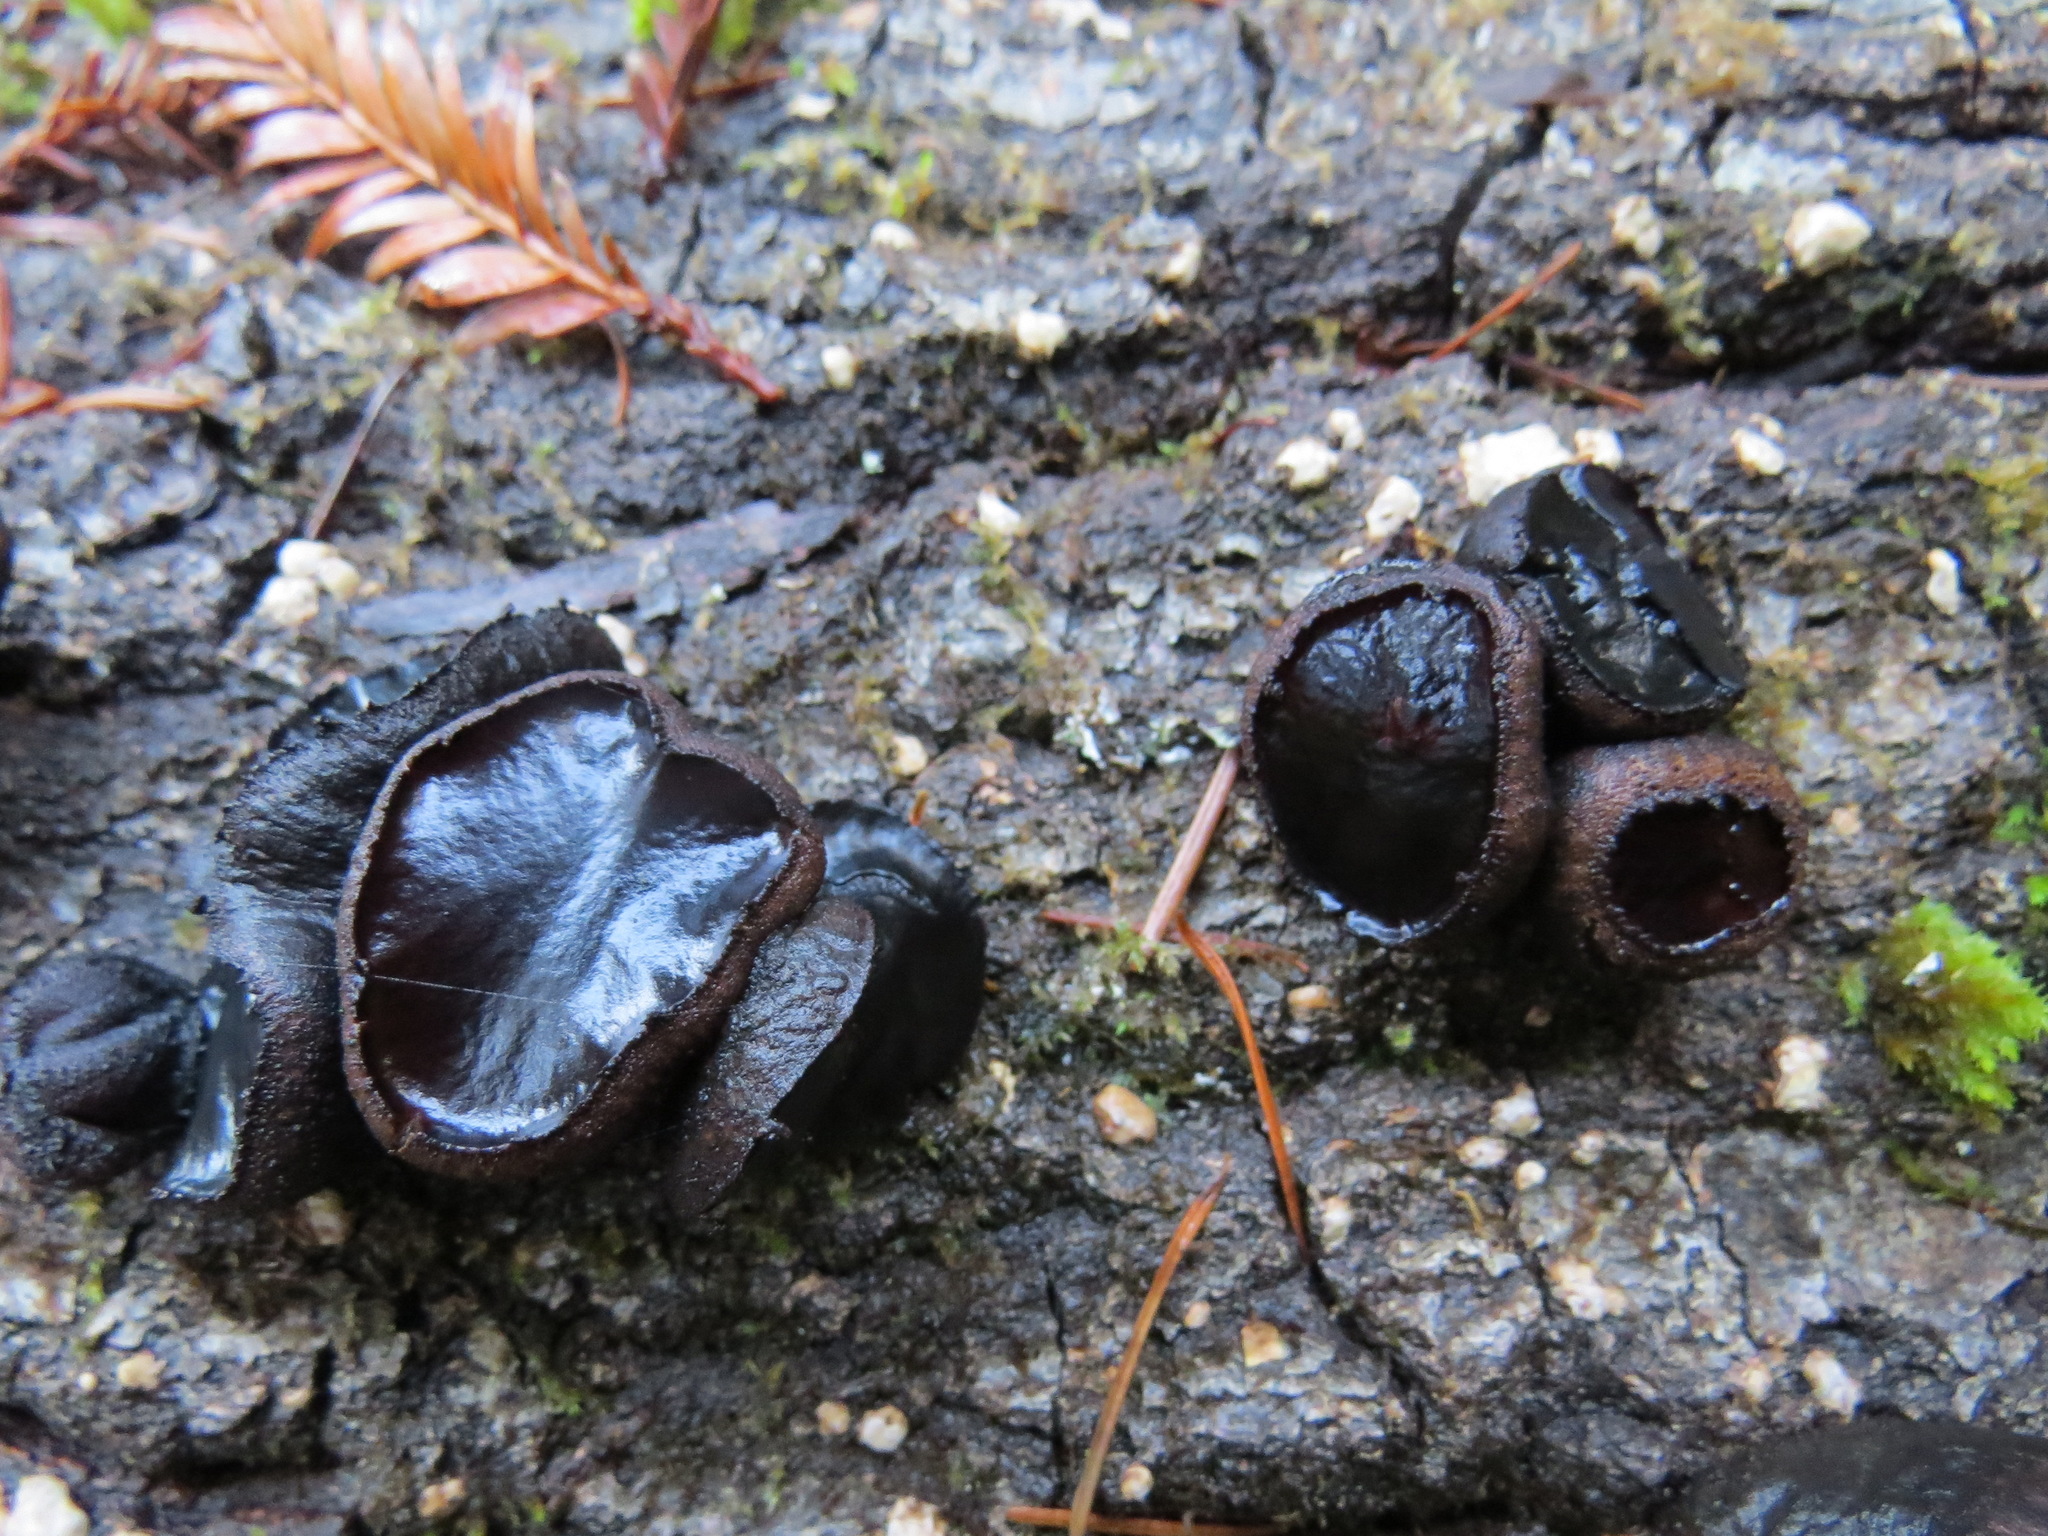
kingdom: Fungi
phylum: Ascomycota
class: Leotiomycetes
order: Phacidiales
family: Phacidiaceae
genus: Bulgaria
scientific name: Bulgaria inquinans
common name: Black bulgar
